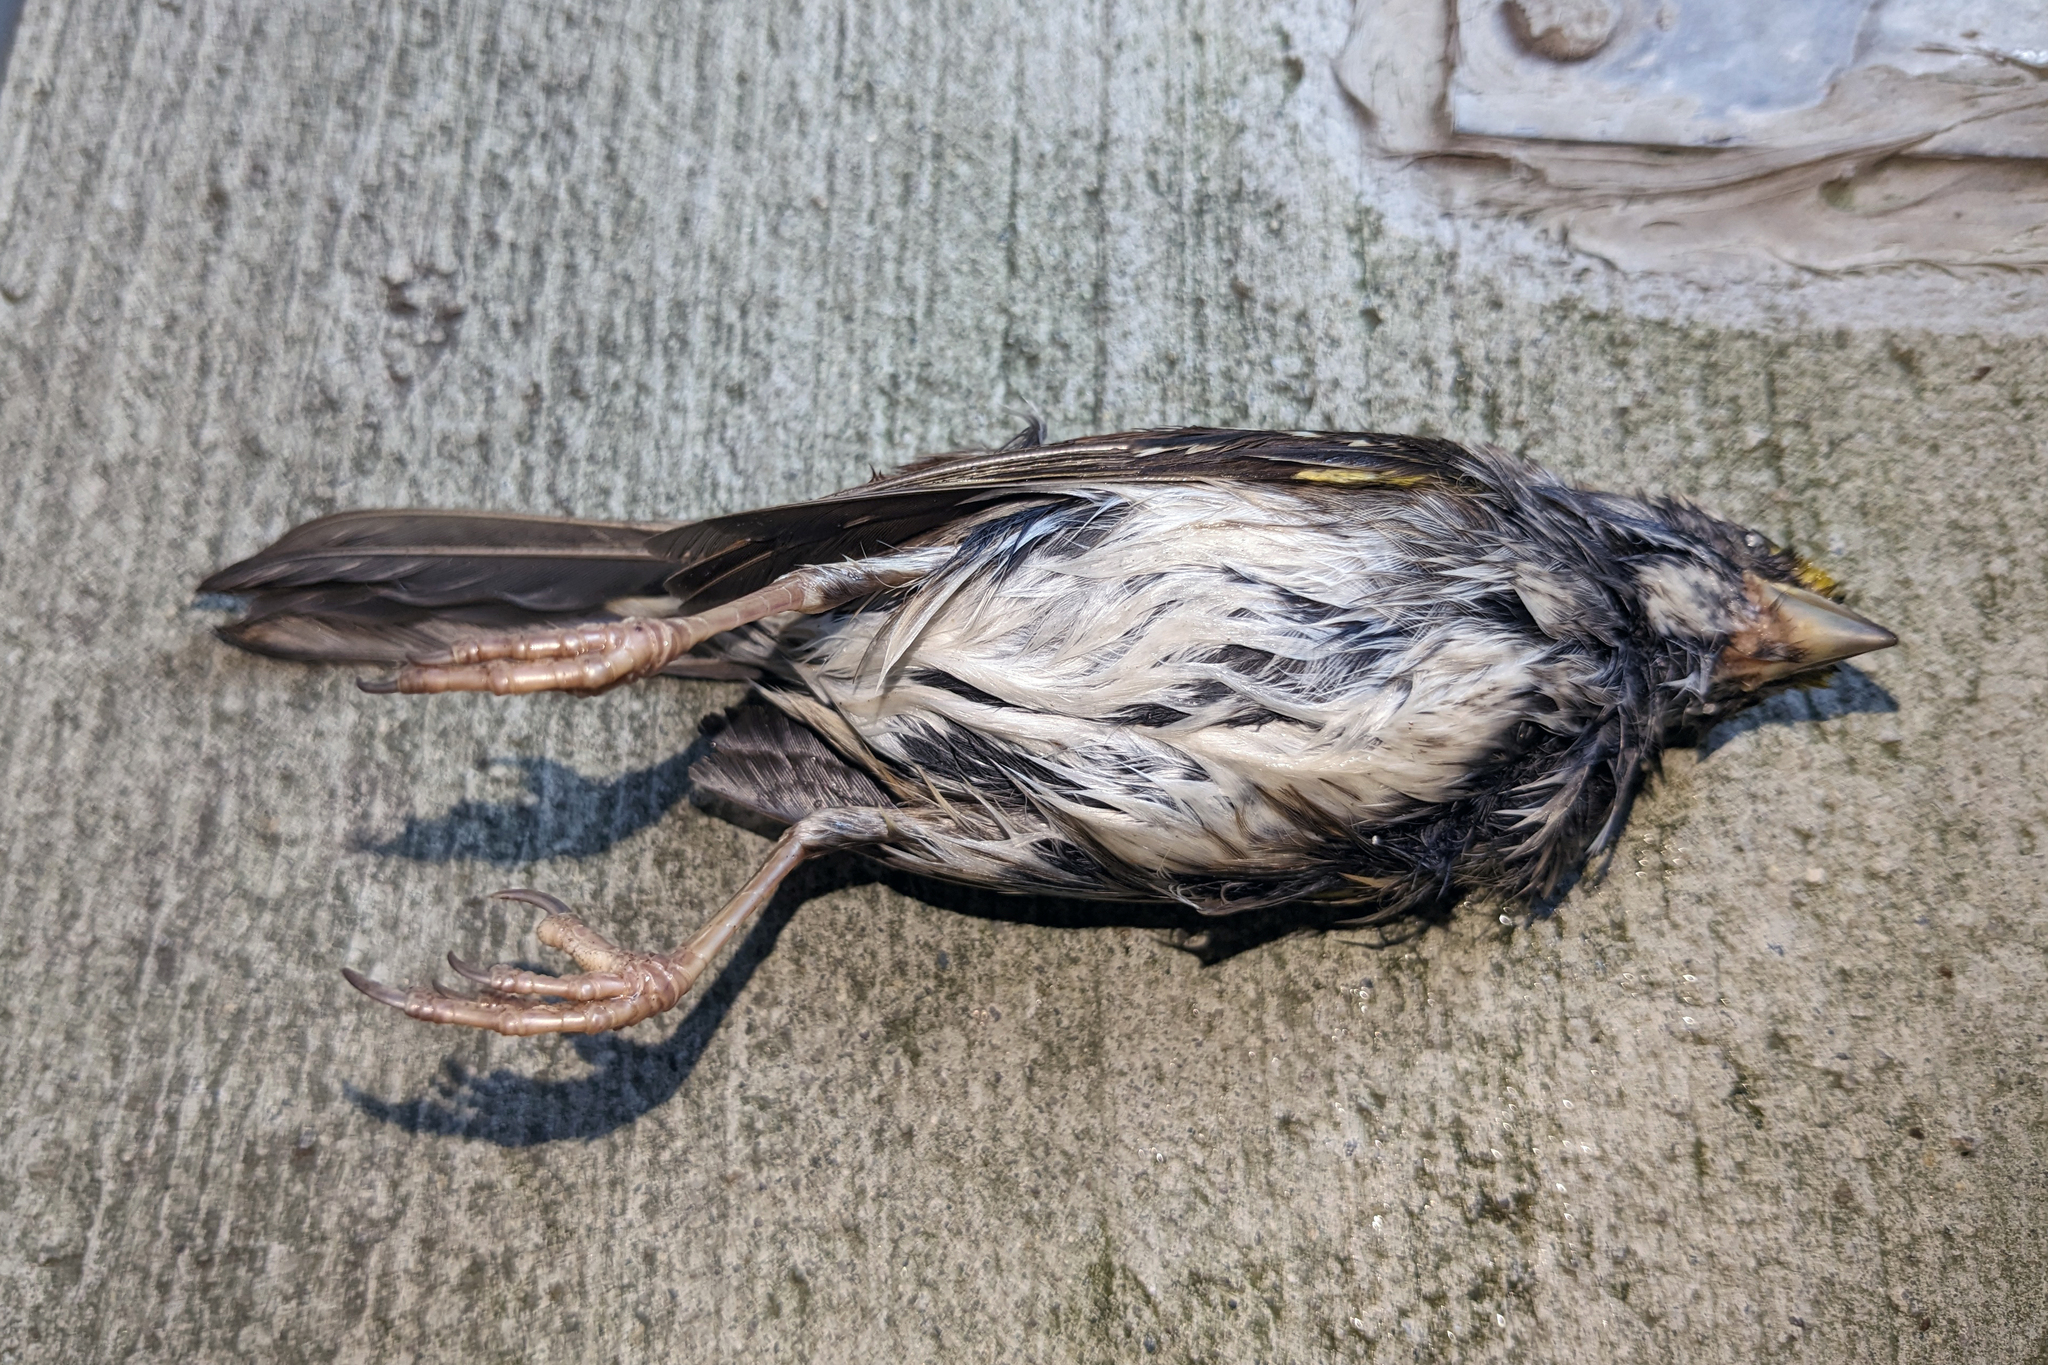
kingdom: Animalia
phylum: Chordata
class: Aves
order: Passeriformes
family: Passerellidae
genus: Zonotrichia
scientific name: Zonotrichia albicollis
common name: White-throated sparrow
